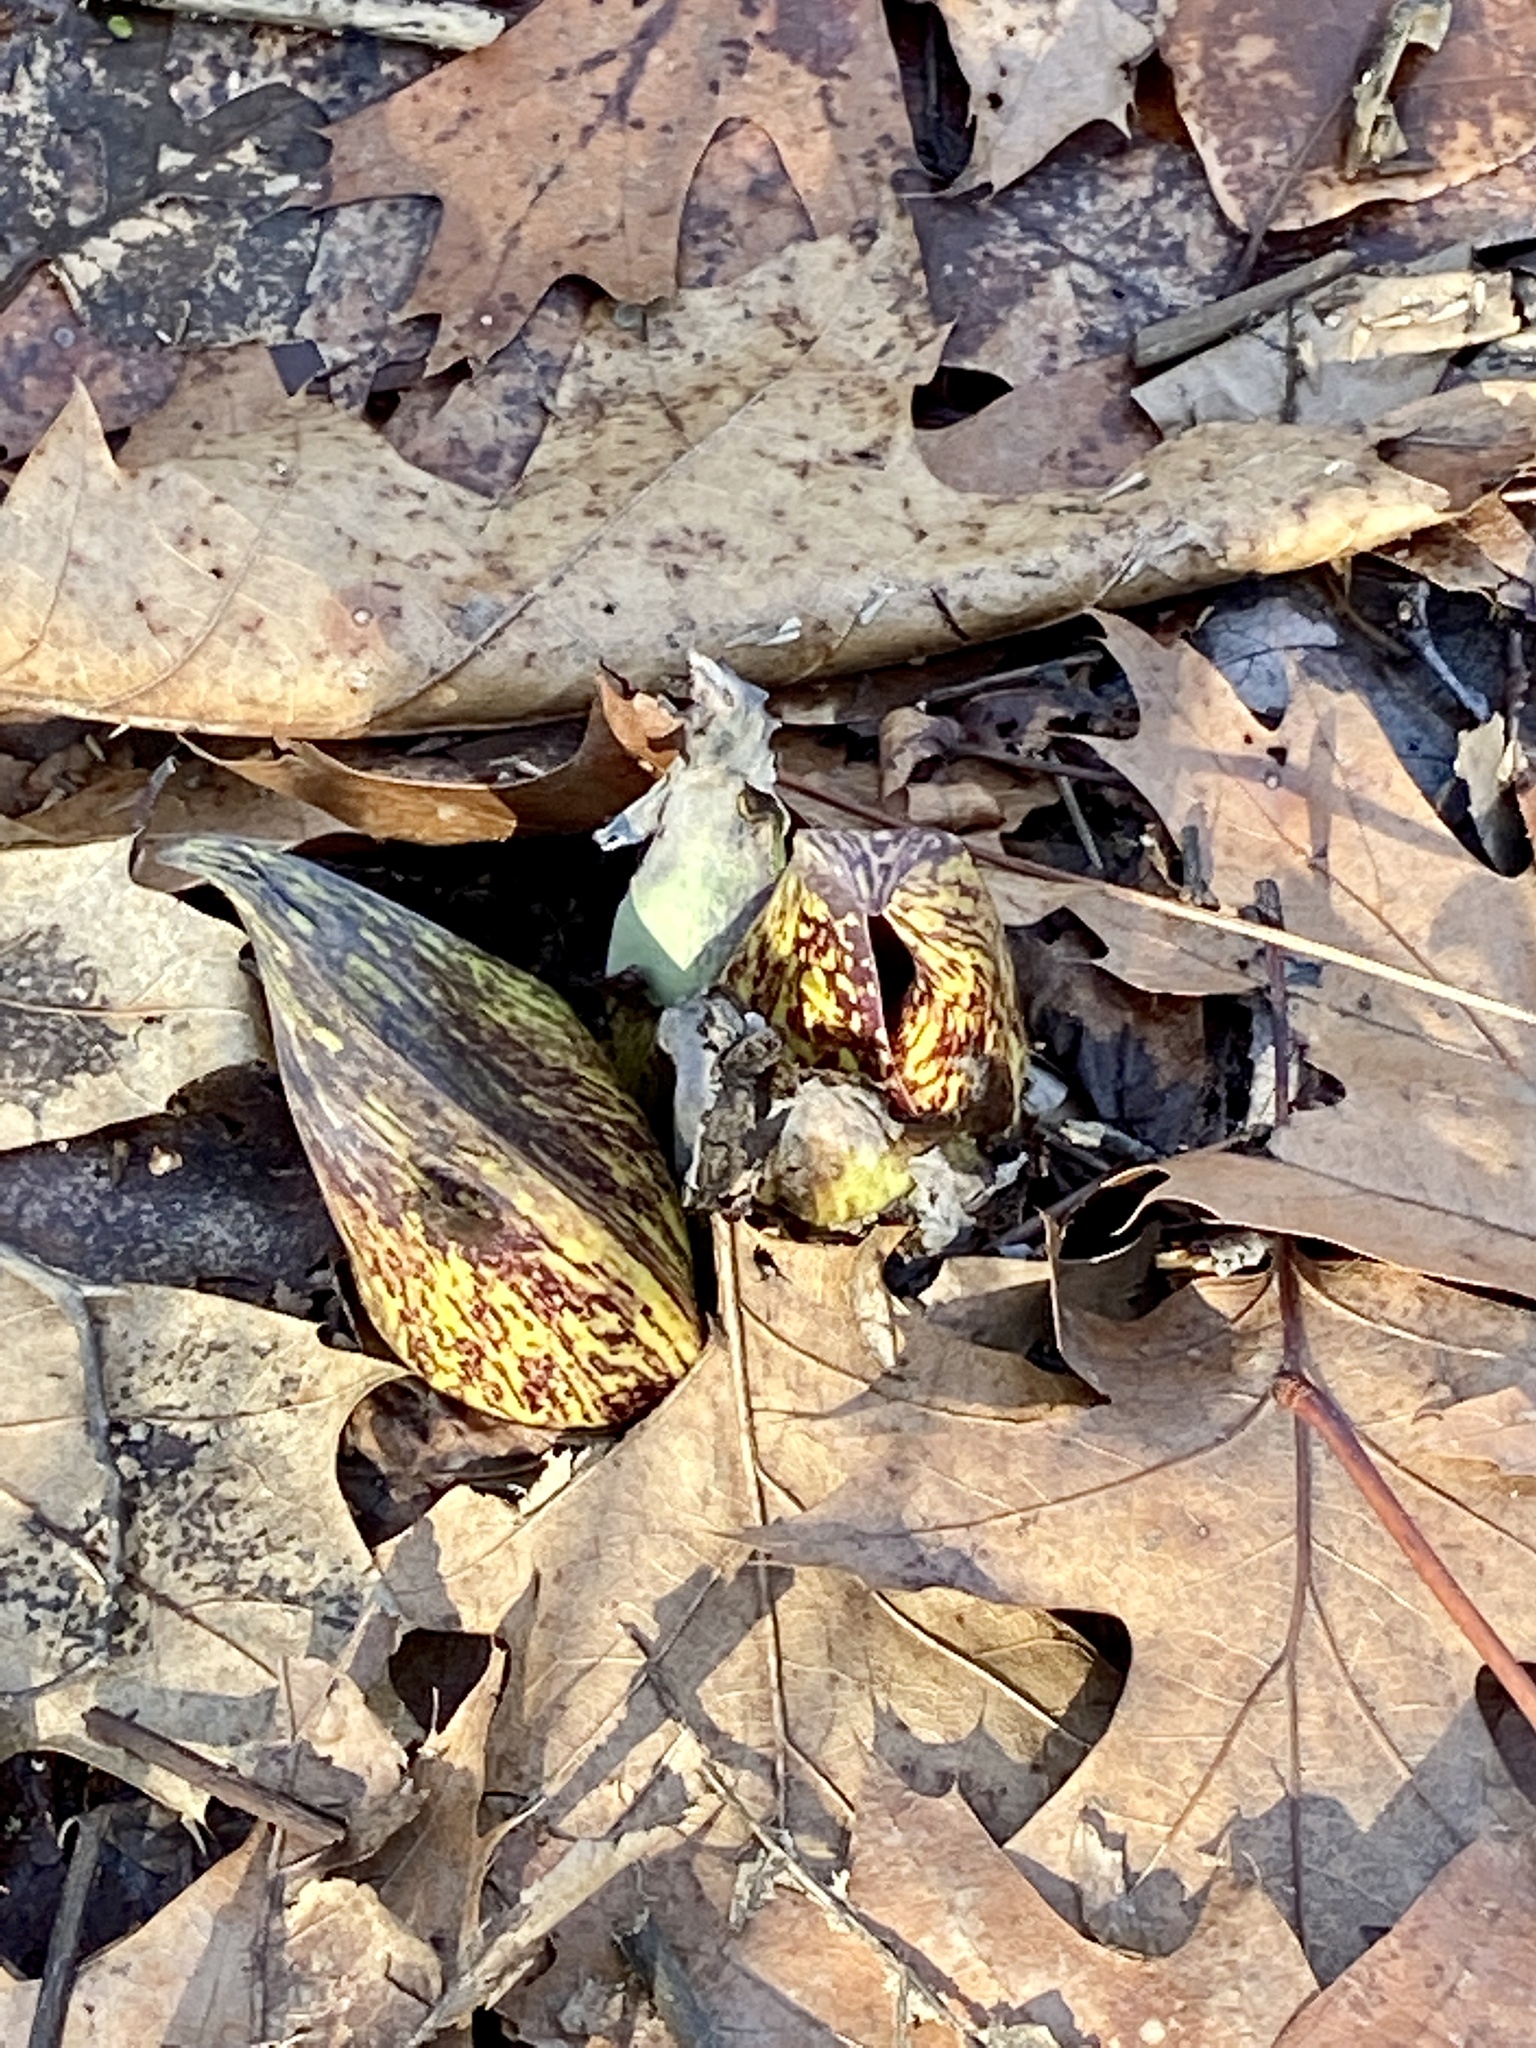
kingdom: Plantae
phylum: Tracheophyta
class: Liliopsida
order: Alismatales
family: Araceae
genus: Symplocarpus
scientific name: Symplocarpus foetidus
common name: Eastern skunk cabbage
